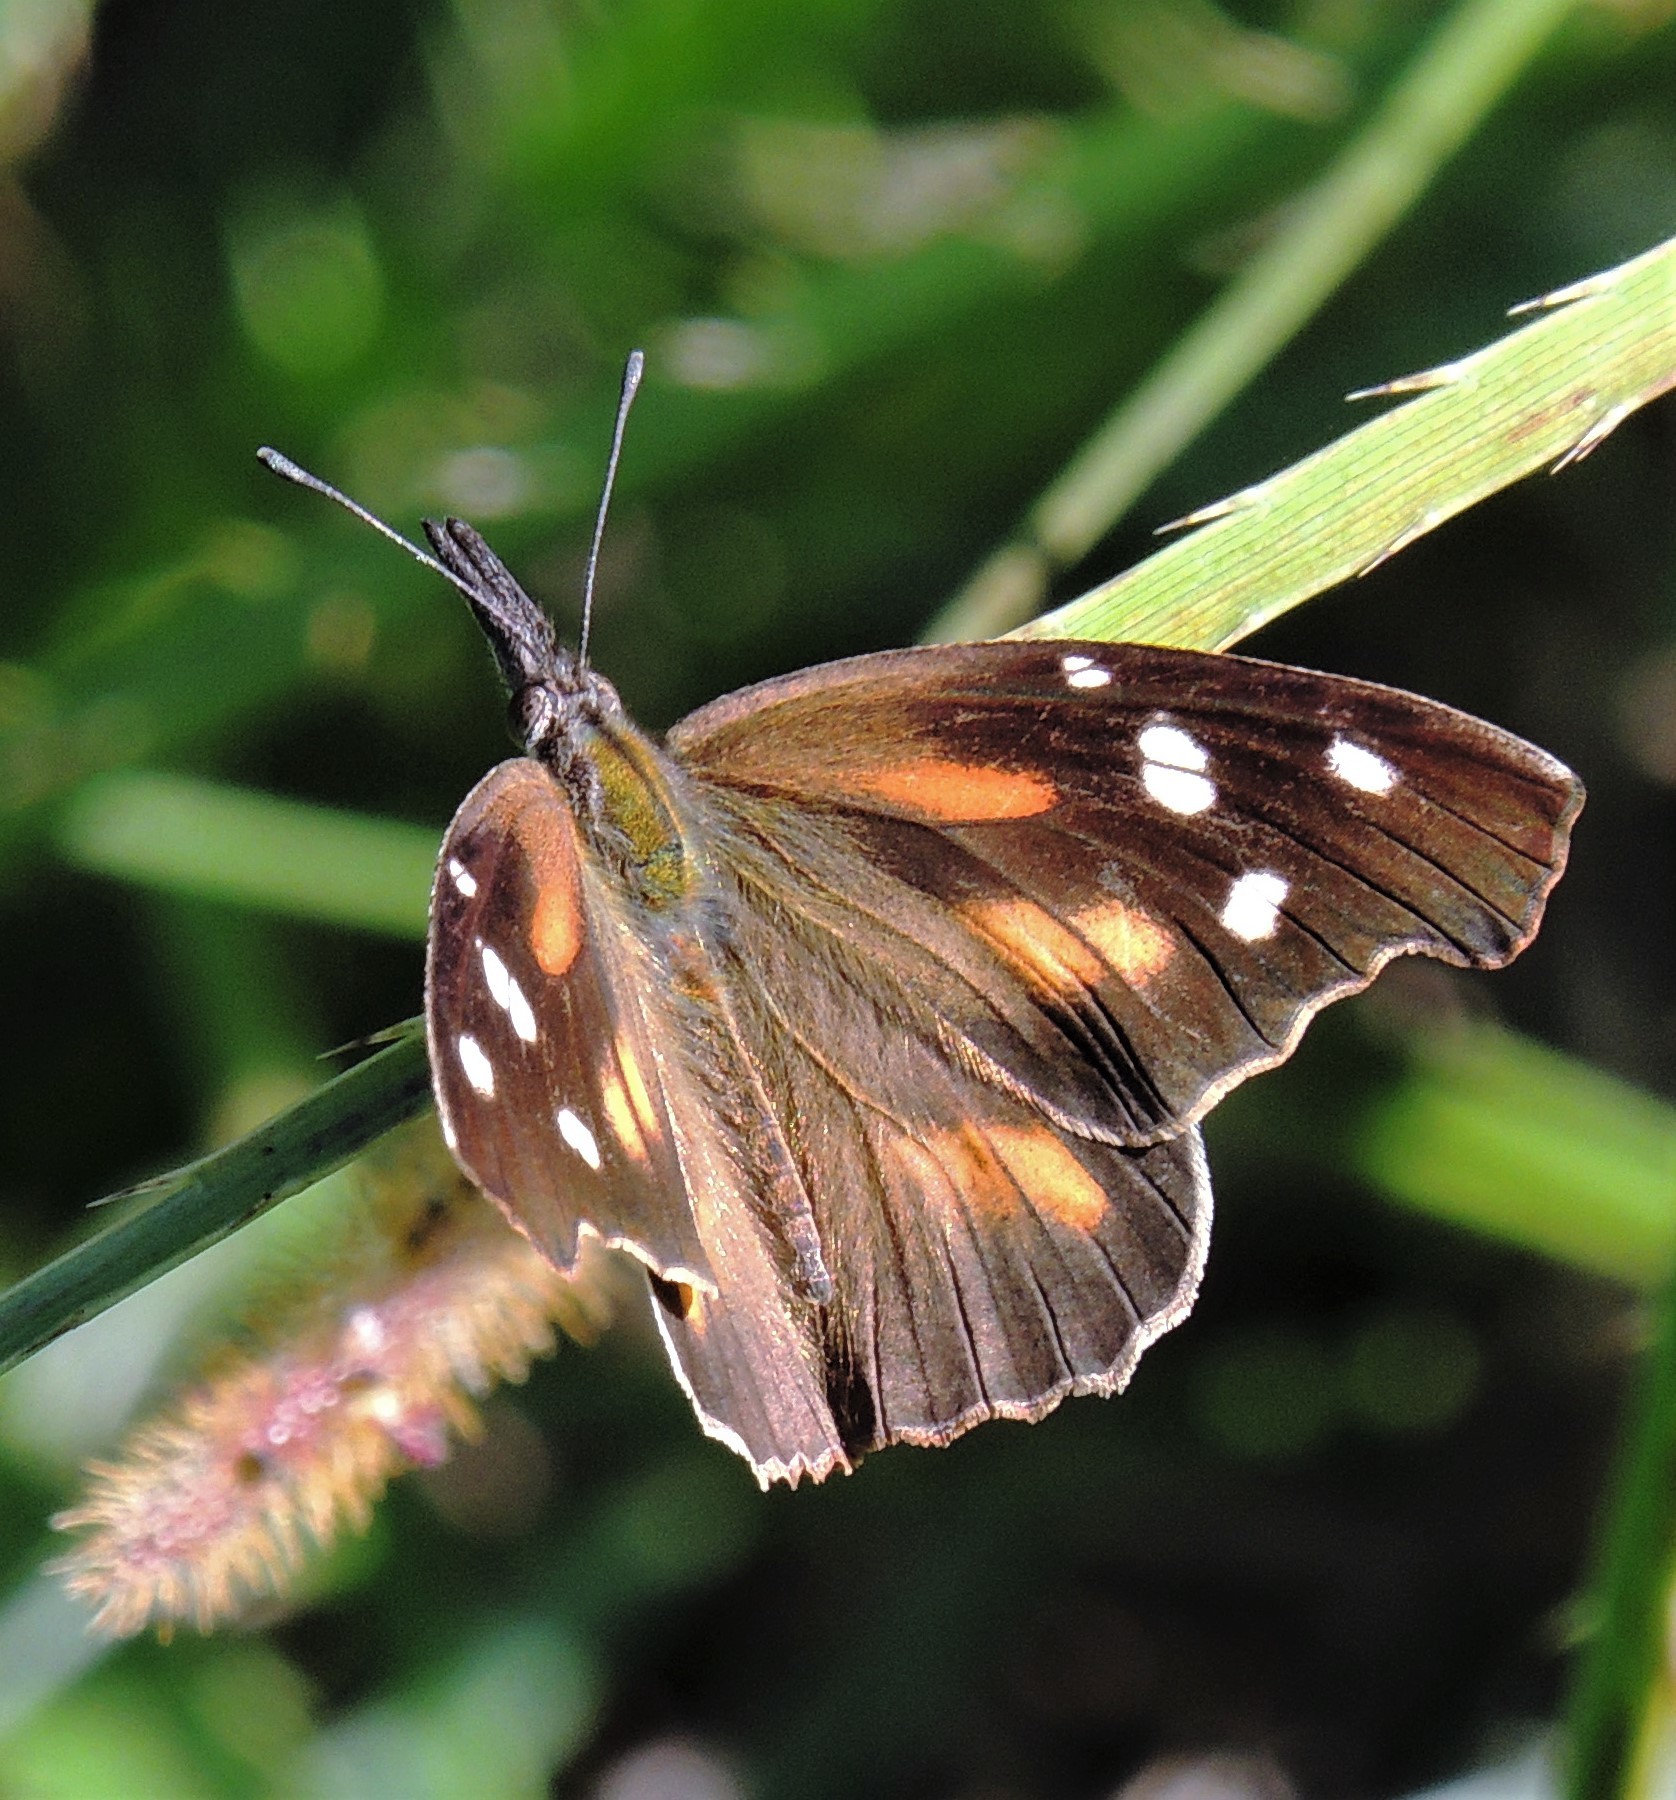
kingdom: Animalia
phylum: Arthropoda
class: Insecta
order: Lepidoptera
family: Nymphalidae
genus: Libytheana
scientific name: Libytheana carinenta
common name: American snout
